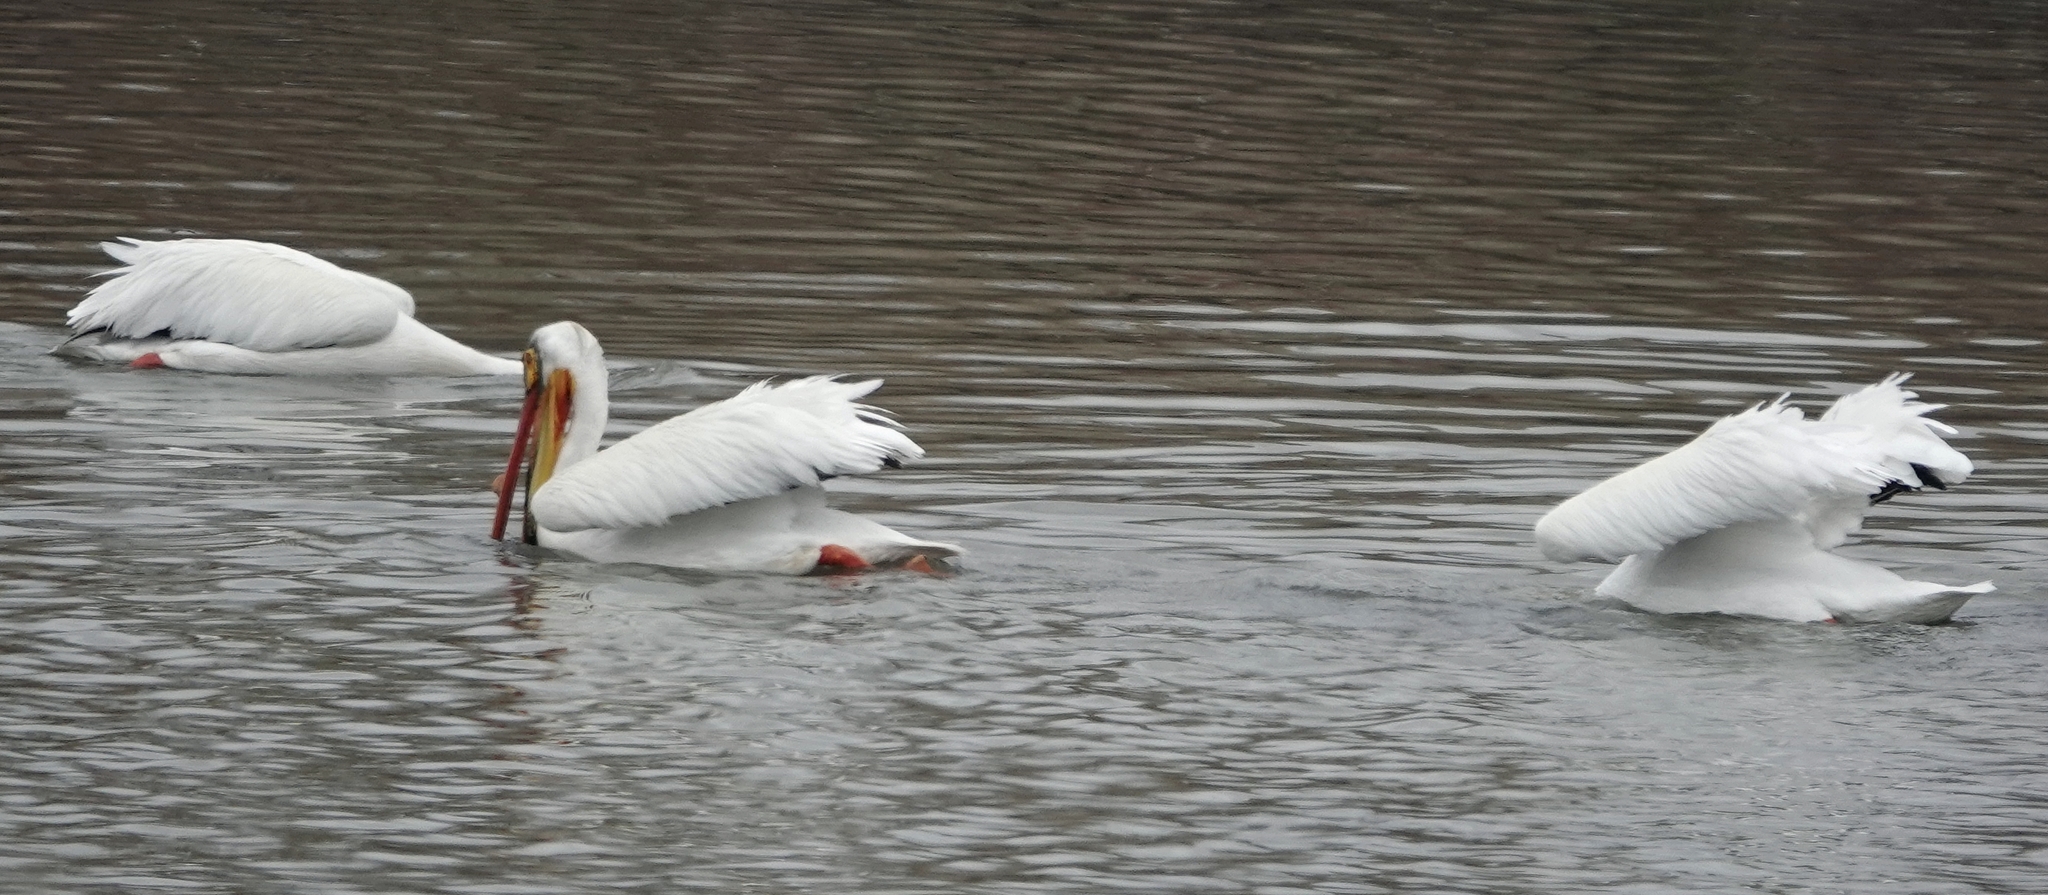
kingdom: Animalia
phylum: Chordata
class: Aves
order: Pelecaniformes
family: Pelecanidae
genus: Pelecanus
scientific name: Pelecanus erythrorhynchos
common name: American white pelican
